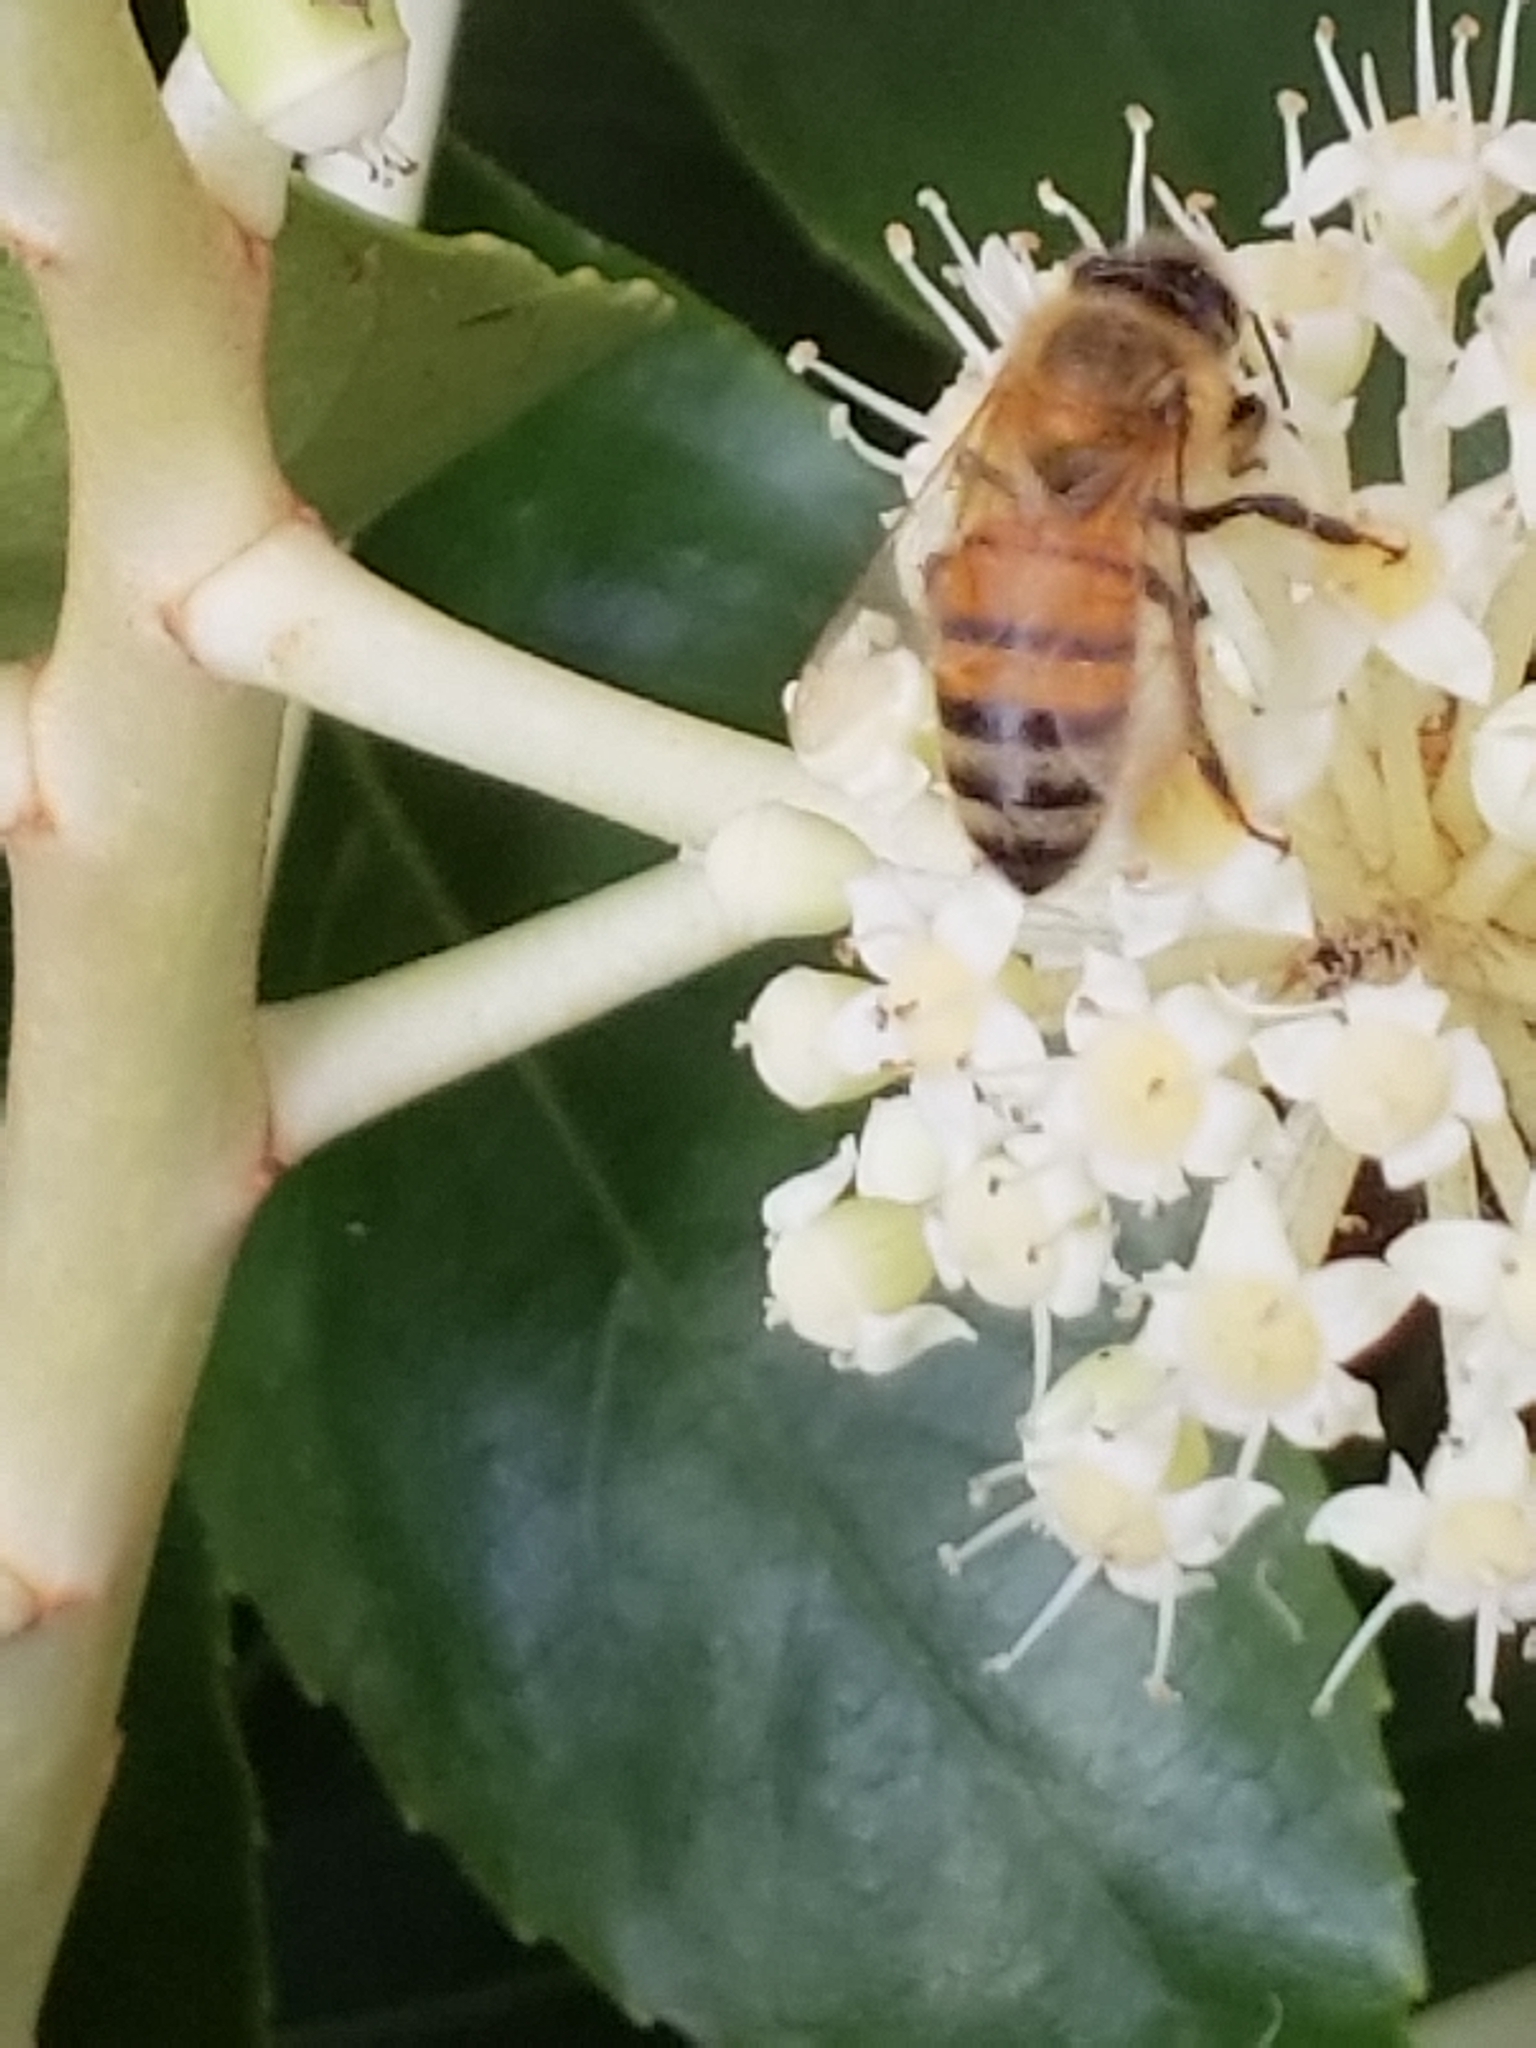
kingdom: Animalia
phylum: Arthropoda
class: Insecta
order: Hymenoptera
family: Apidae
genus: Apis
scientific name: Apis mellifera
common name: Honey bee
